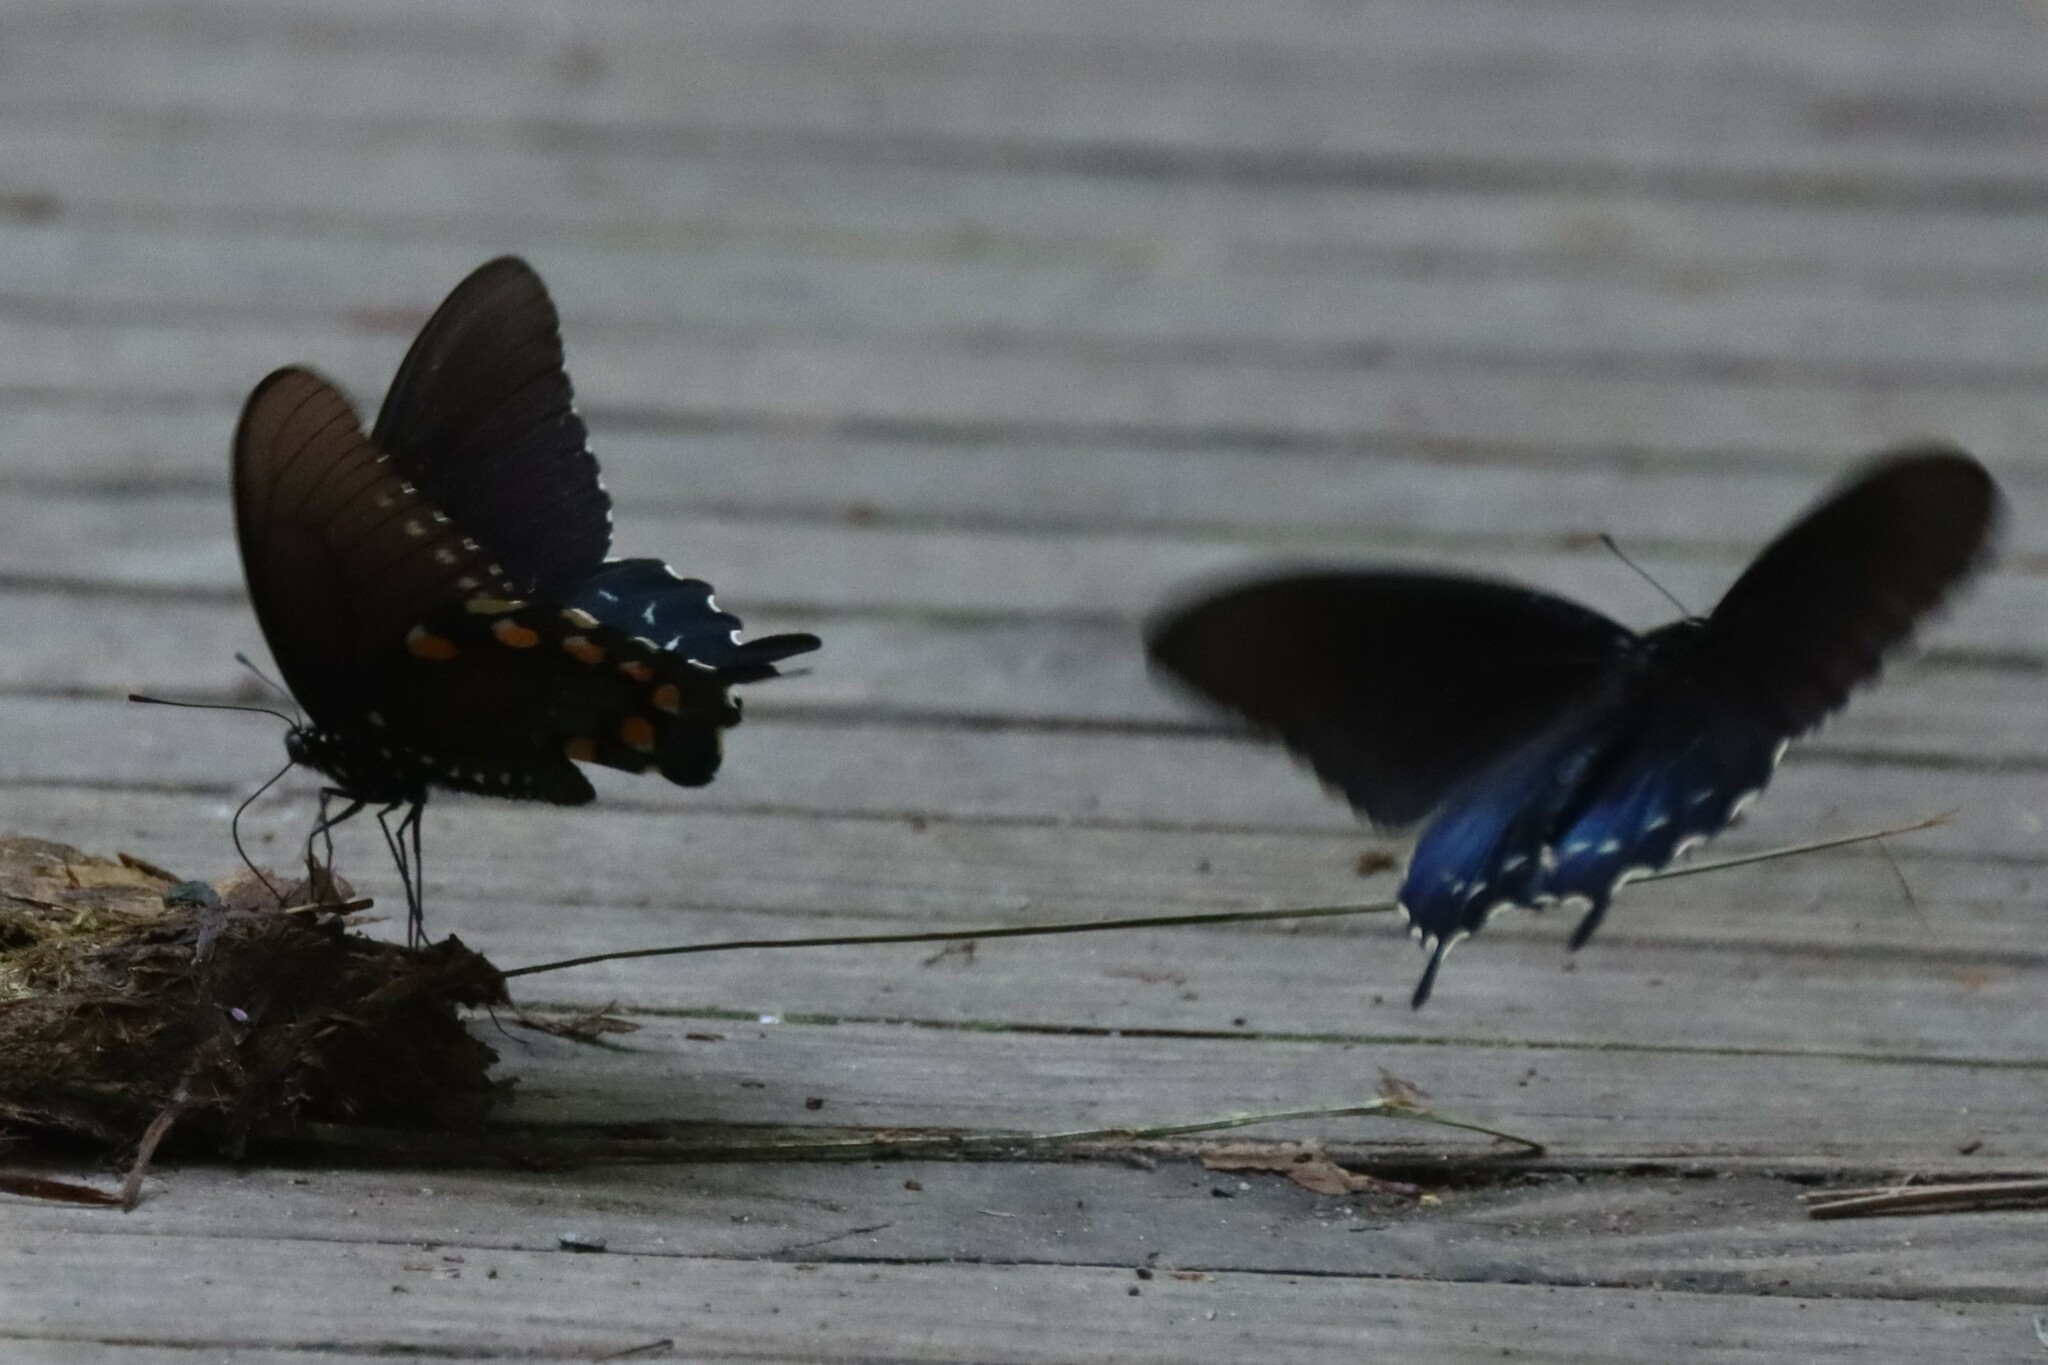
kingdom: Animalia
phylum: Arthropoda
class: Insecta
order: Lepidoptera
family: Papilionidae
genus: Battus
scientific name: Battus philenor
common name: Pipevine swallowtail
